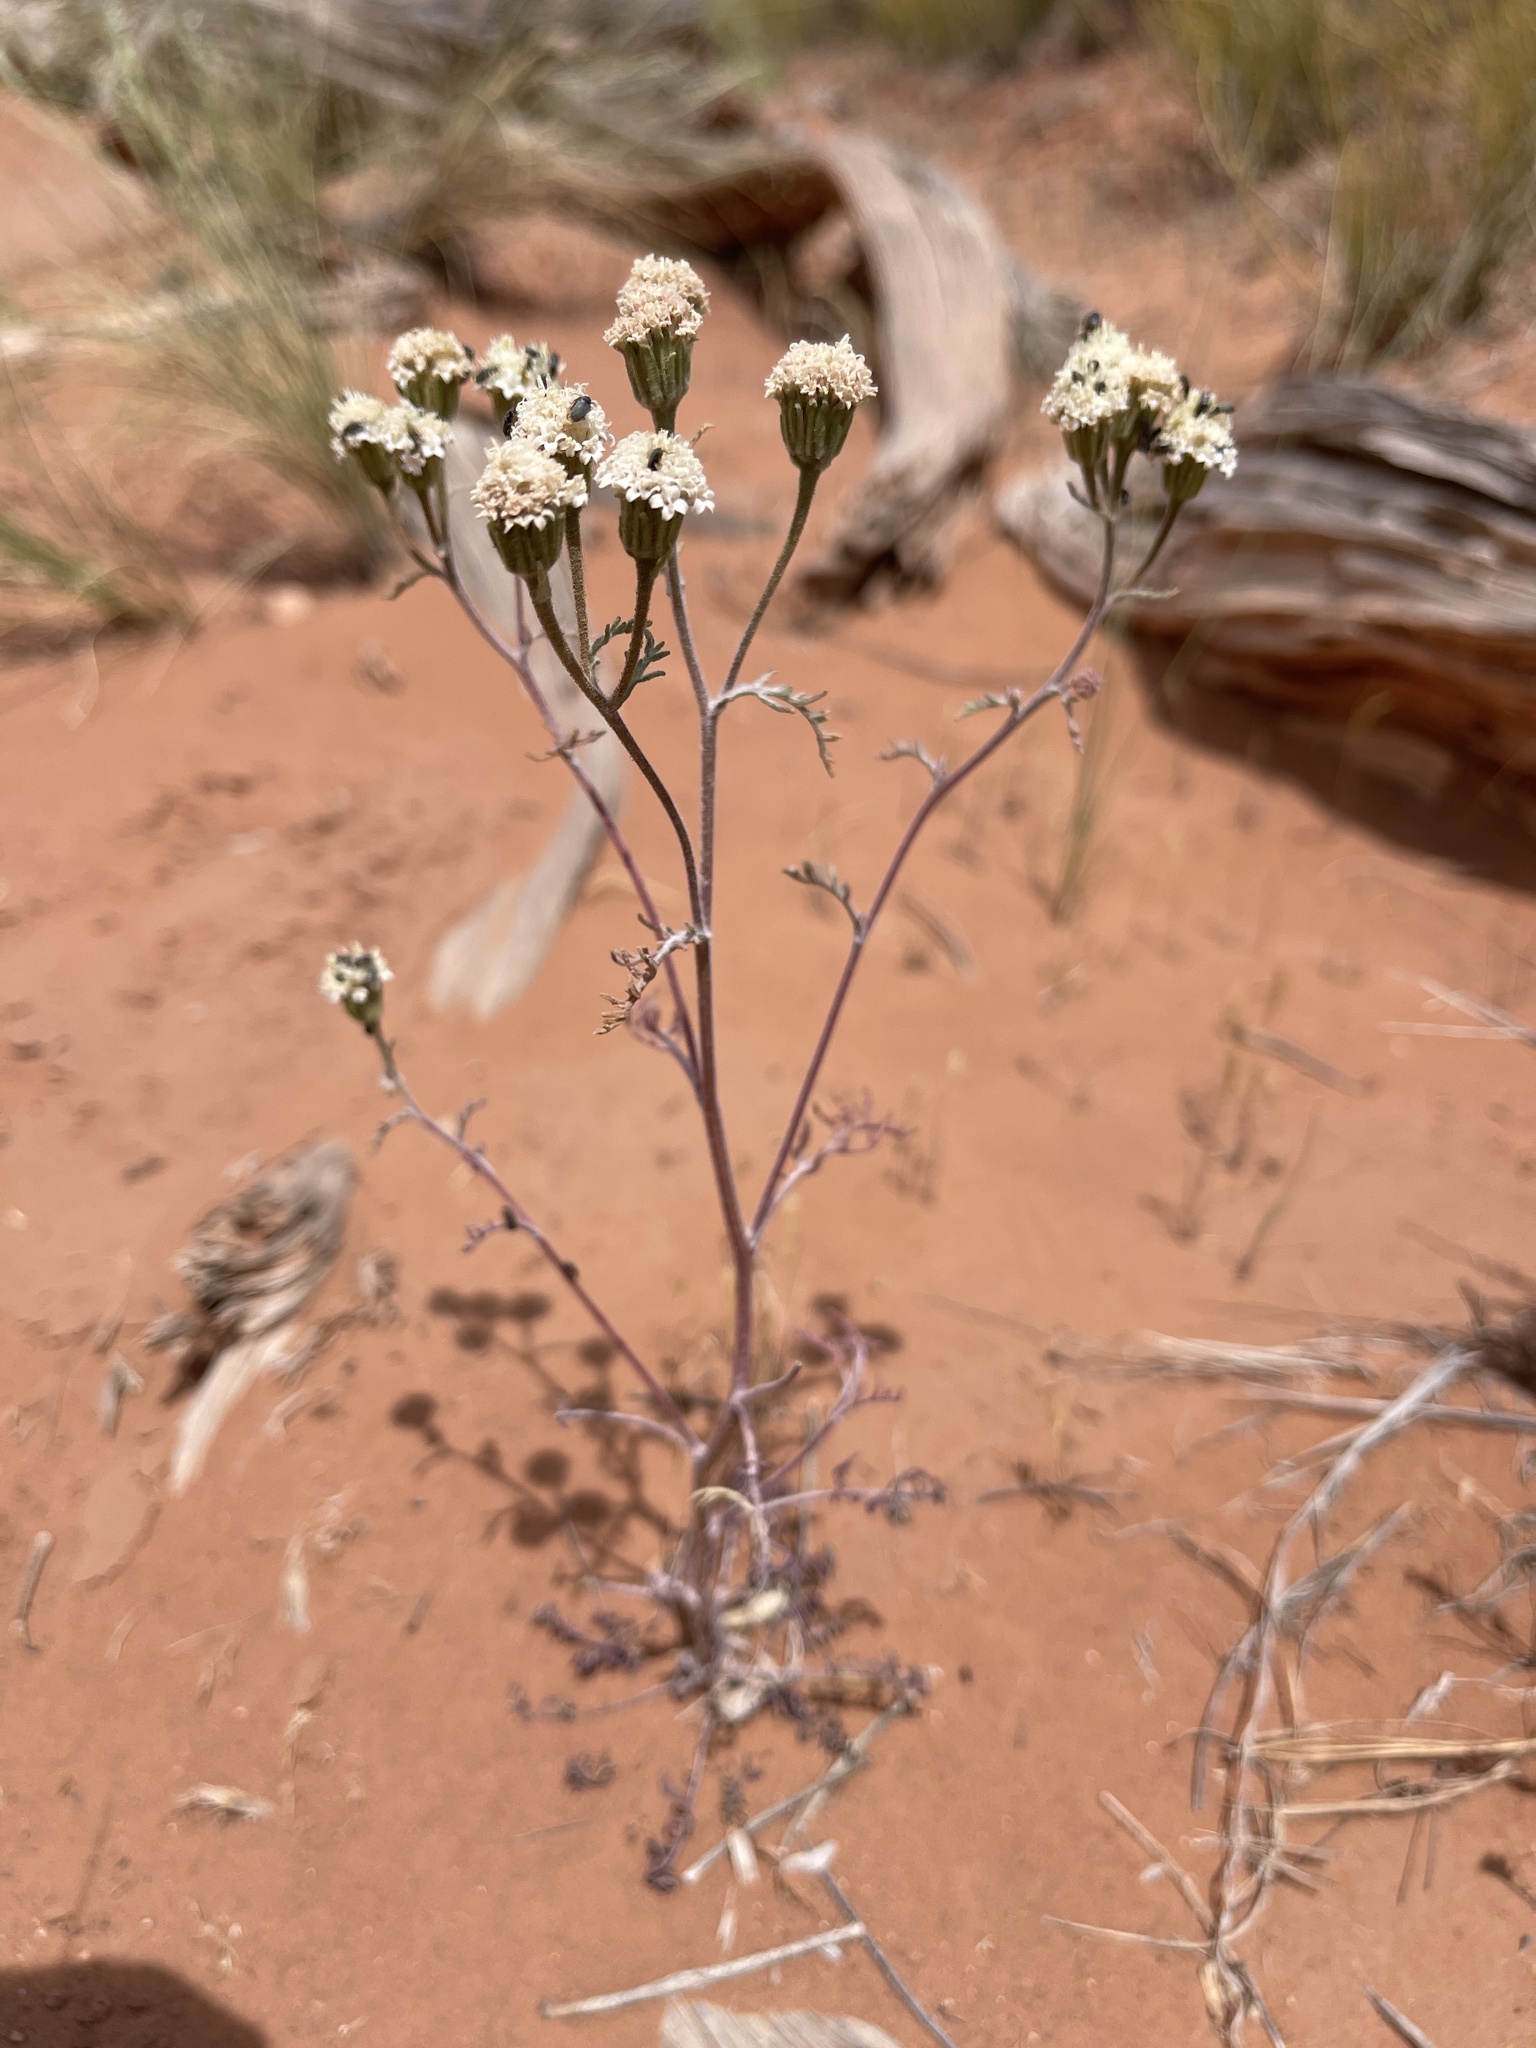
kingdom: Plantae
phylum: Tracheophyta
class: Magnoliopsida
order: Asterales
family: Asteraceae
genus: Chaenactis
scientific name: Chaenactis stevioides
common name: Desert pincushion
